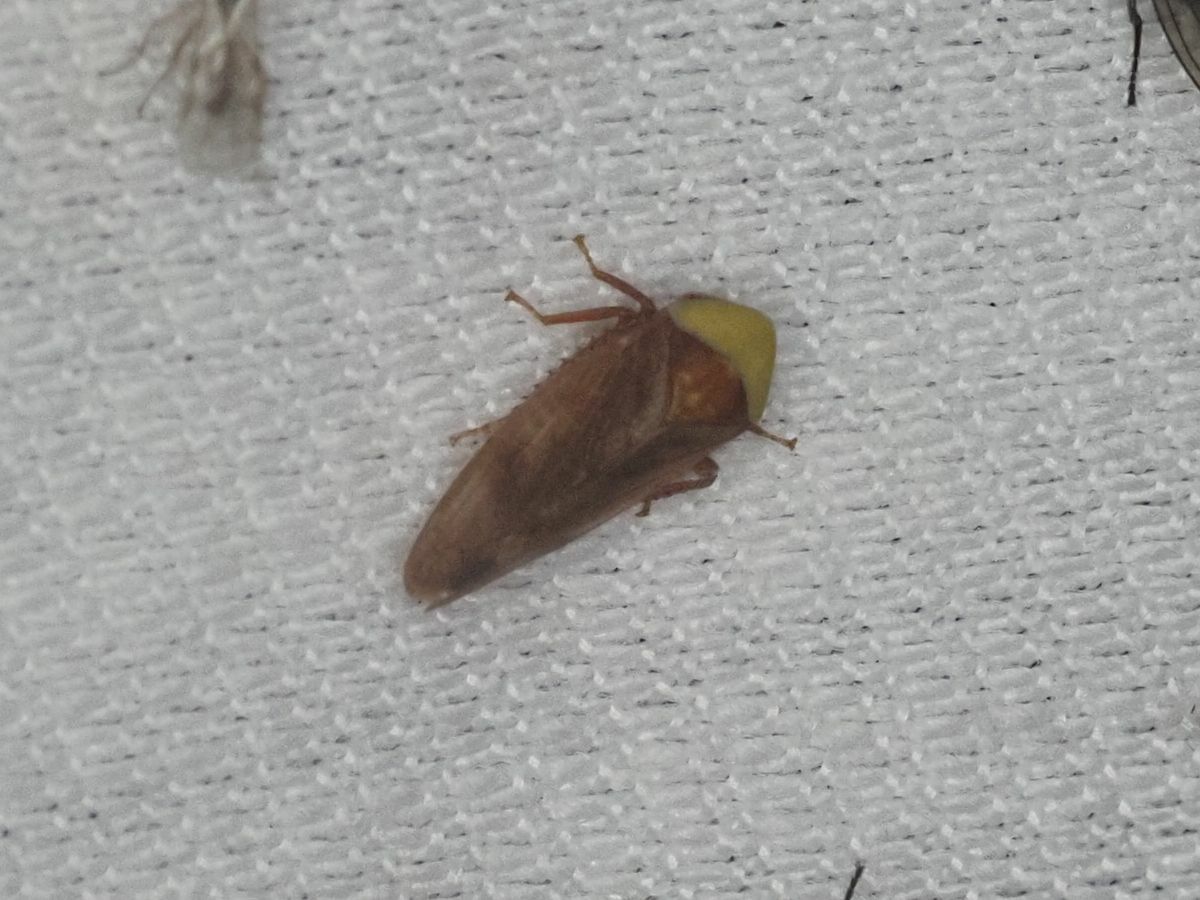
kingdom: Animalia
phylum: Arthropoda
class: Insecta
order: Hemiptera
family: Cicadellidae
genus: Pediopsis
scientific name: Pediopsis tiliae
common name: Leafhopper
